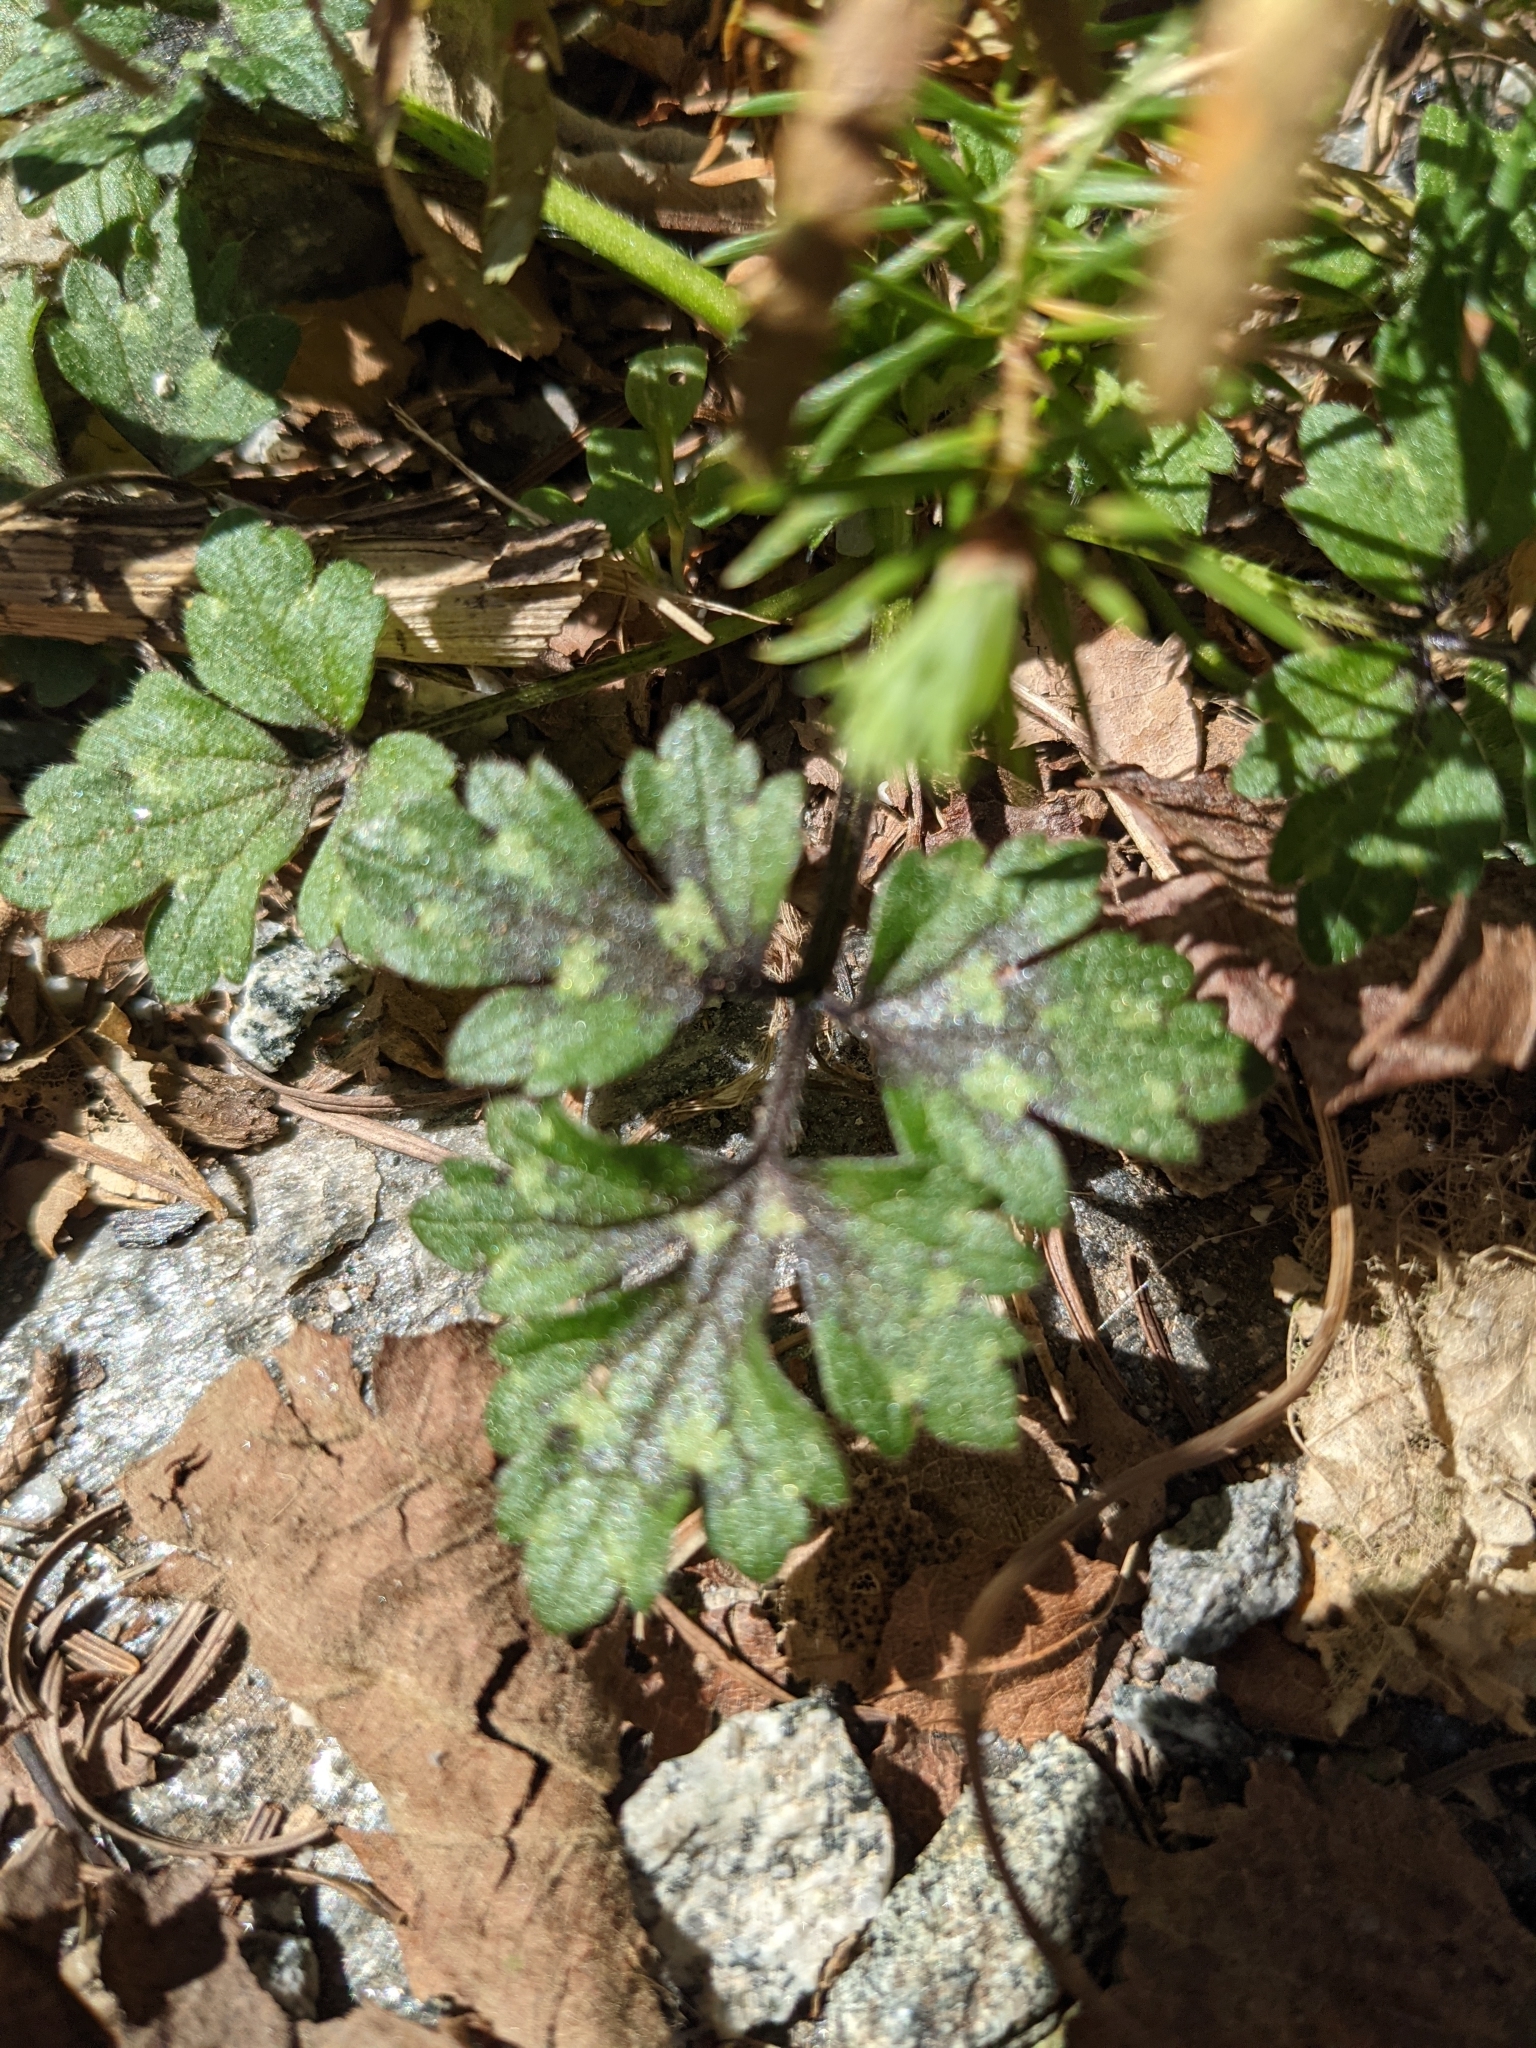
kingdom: Plantae
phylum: Tracheophyta
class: Magnoliopsida
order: Geraniales
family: Geraniaceae
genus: Erodium
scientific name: Erodium cicutarium
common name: Common stork's-bill
